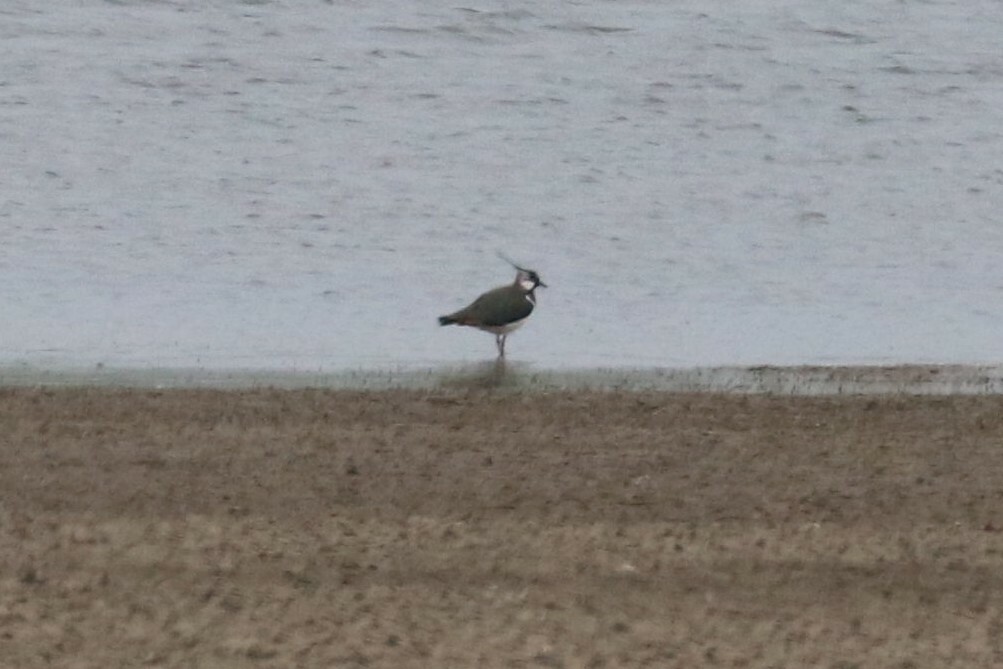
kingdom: Animalia
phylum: Chordata
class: Aves
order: Charadriiformes
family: Charadriidae
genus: Vanellus
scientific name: Vanellus vanellus
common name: Northern lapwing
